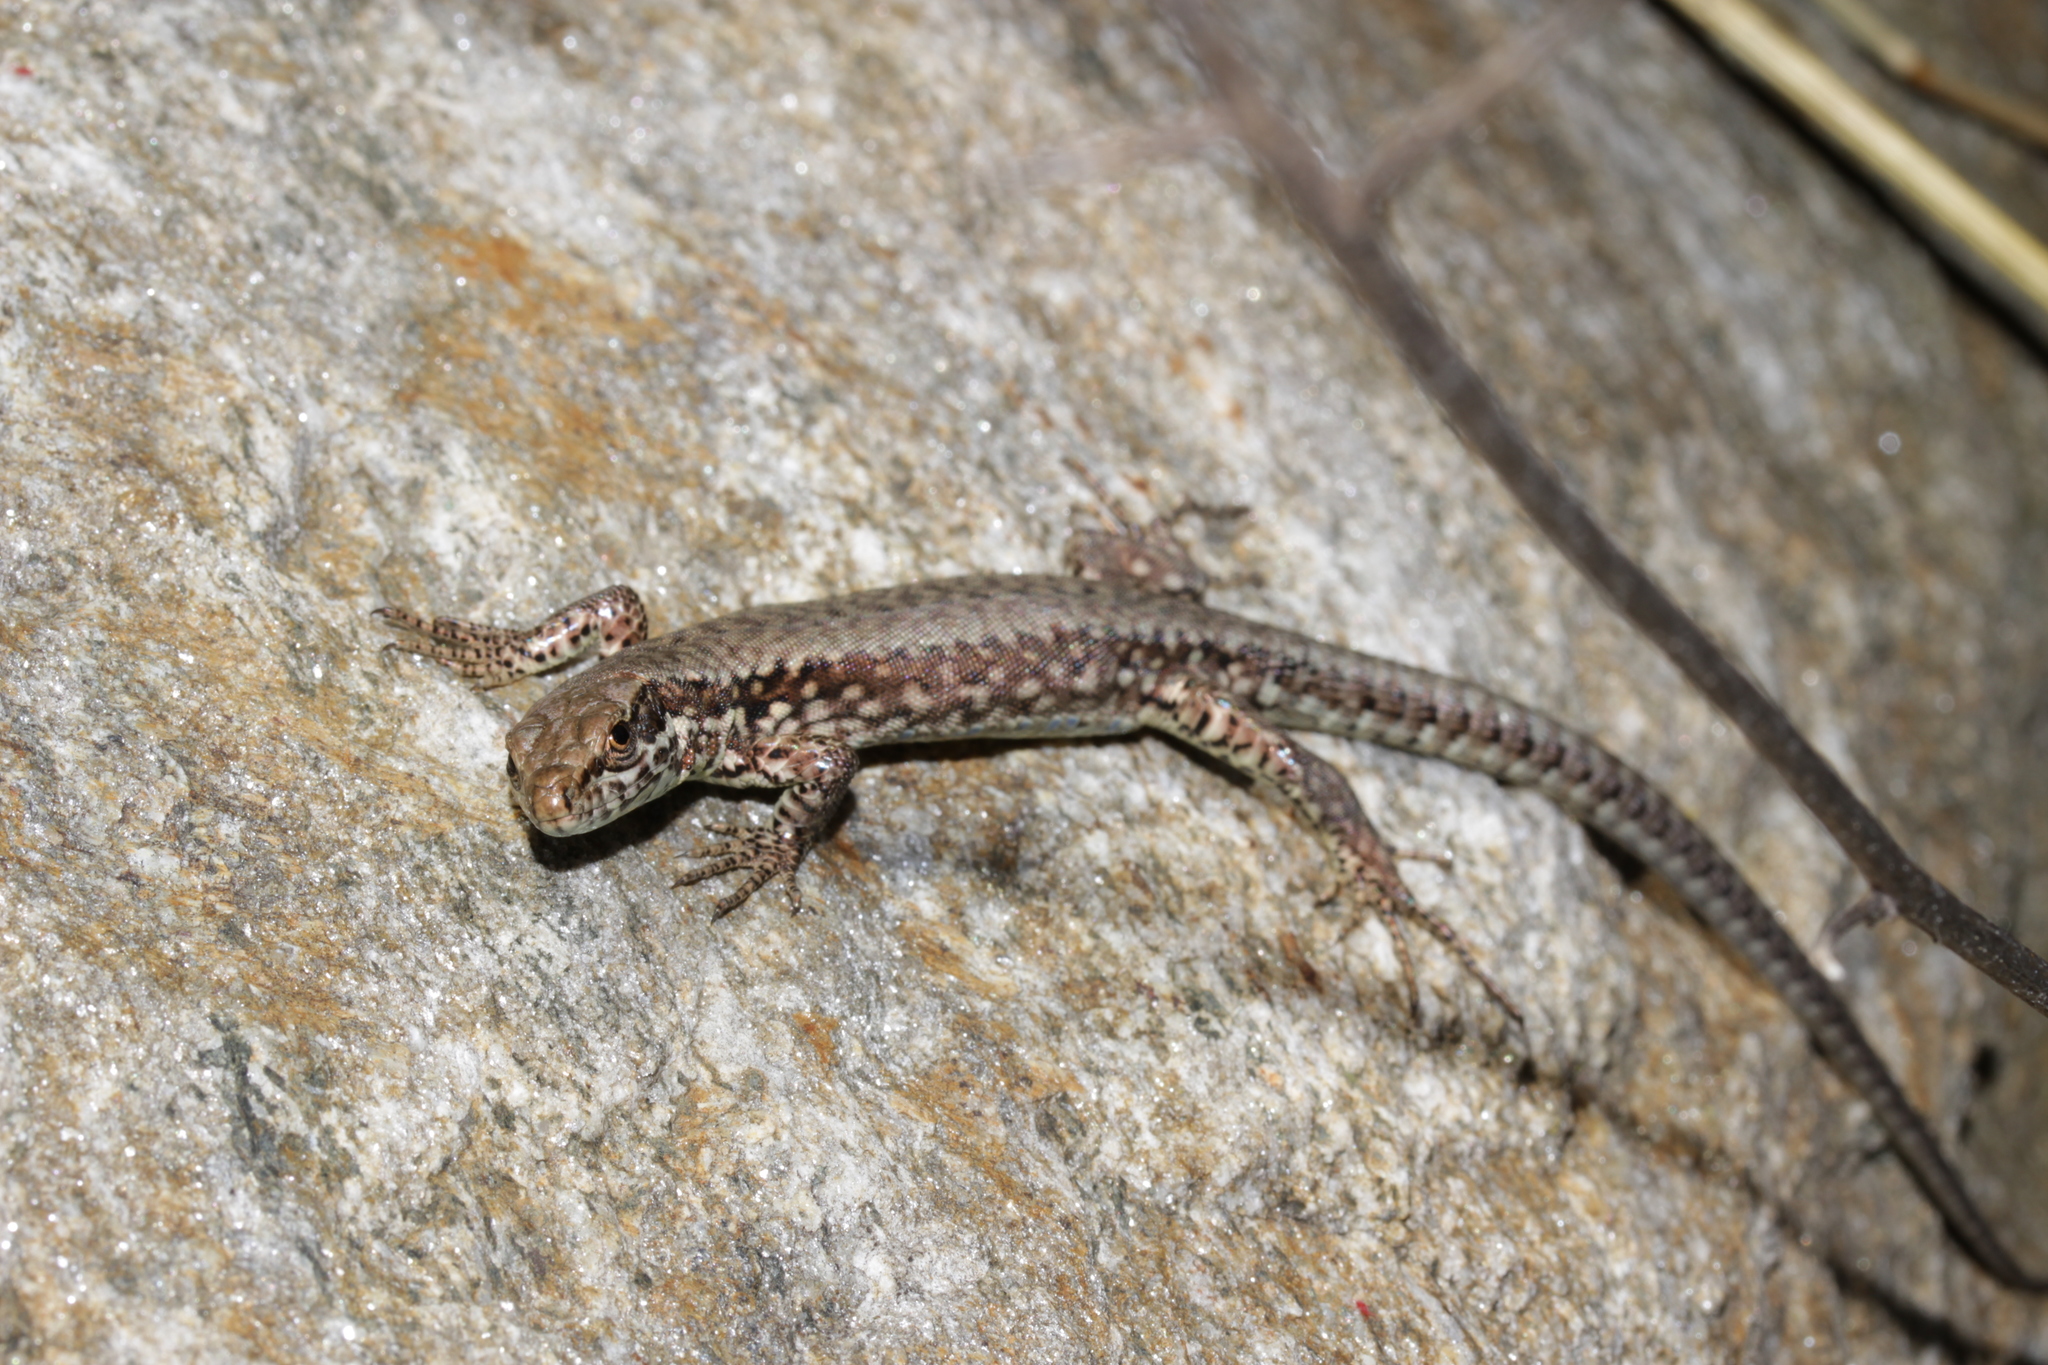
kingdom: Animalia
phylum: Chordata
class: Squamata
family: Lacertidae
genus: Podarcis
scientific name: Podarcis muralis
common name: Common wall lizard
